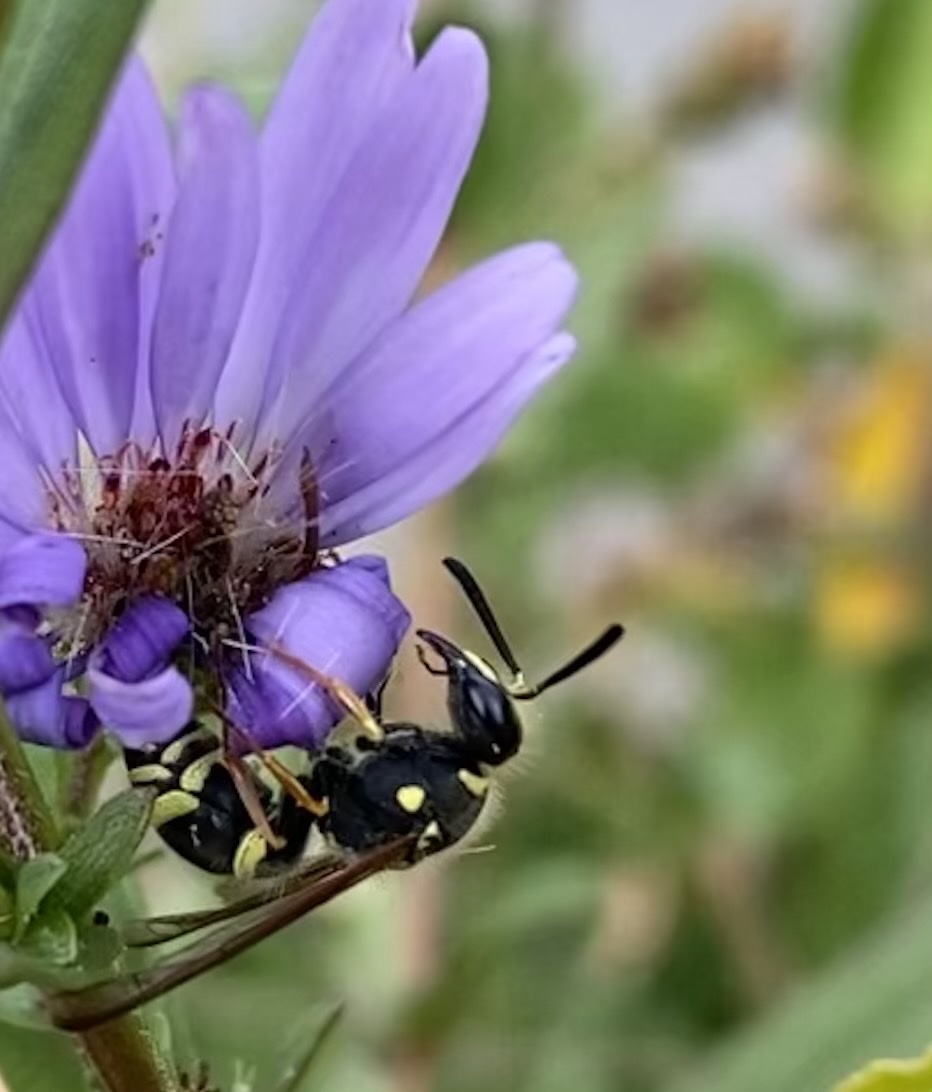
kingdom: Animalia
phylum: Arthropoda
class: Insecta
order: Hymenoptera
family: Vespidae
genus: Ancistrocerus
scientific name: Ancistrocerus bustamente
